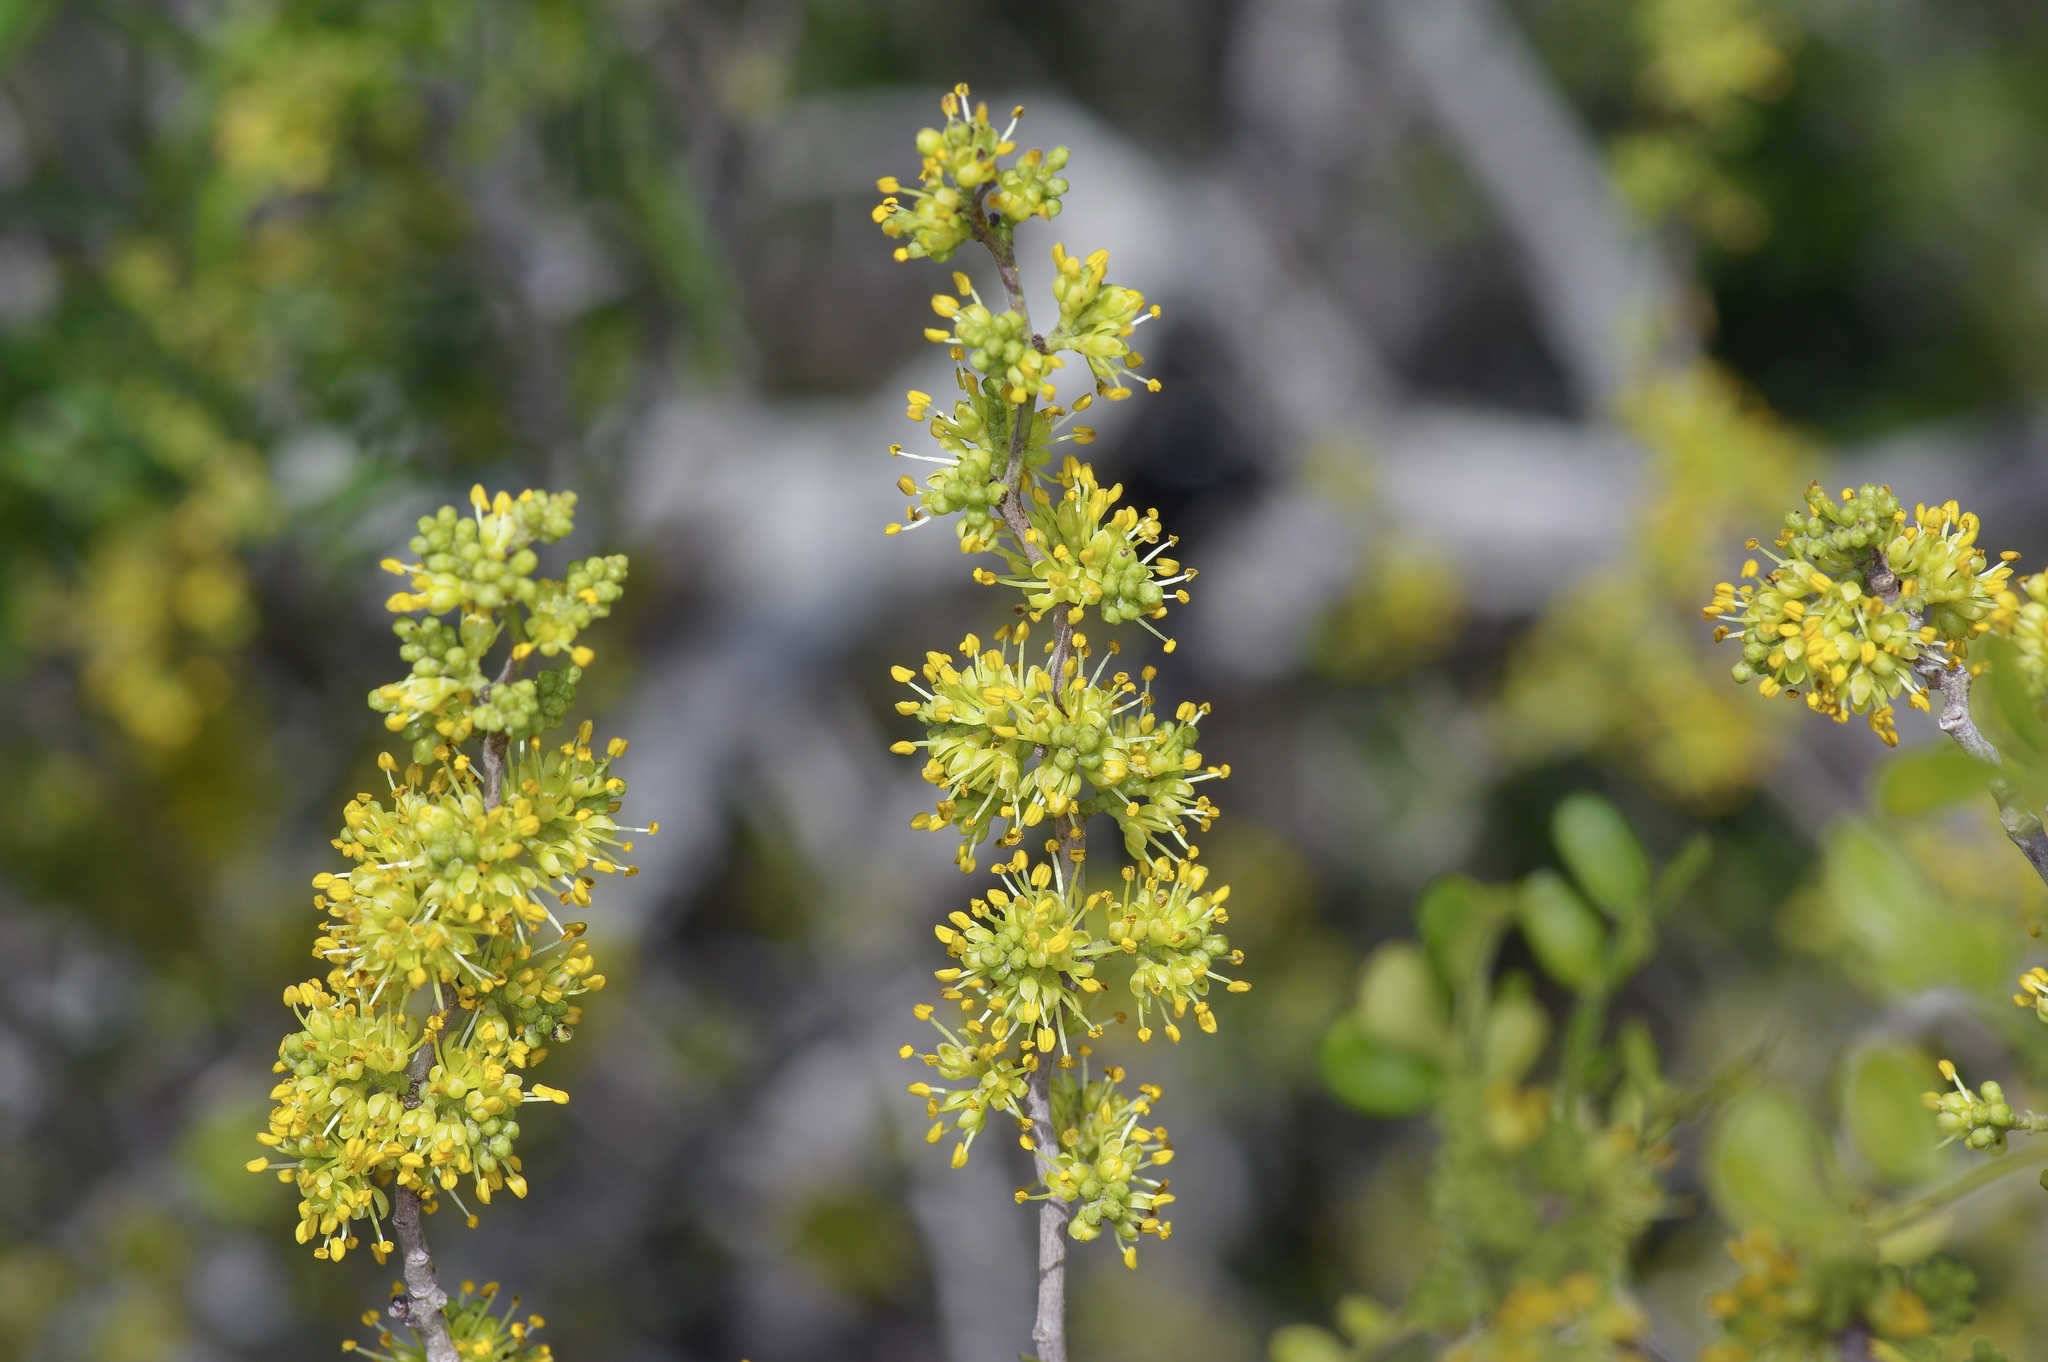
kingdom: Plantae
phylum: Tracheophyta
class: Magnoliopsida
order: Sapindales
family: Rutaceae
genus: Zanthoxylum
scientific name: Zanthoxylum fagara
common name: Lime prickly-ash
